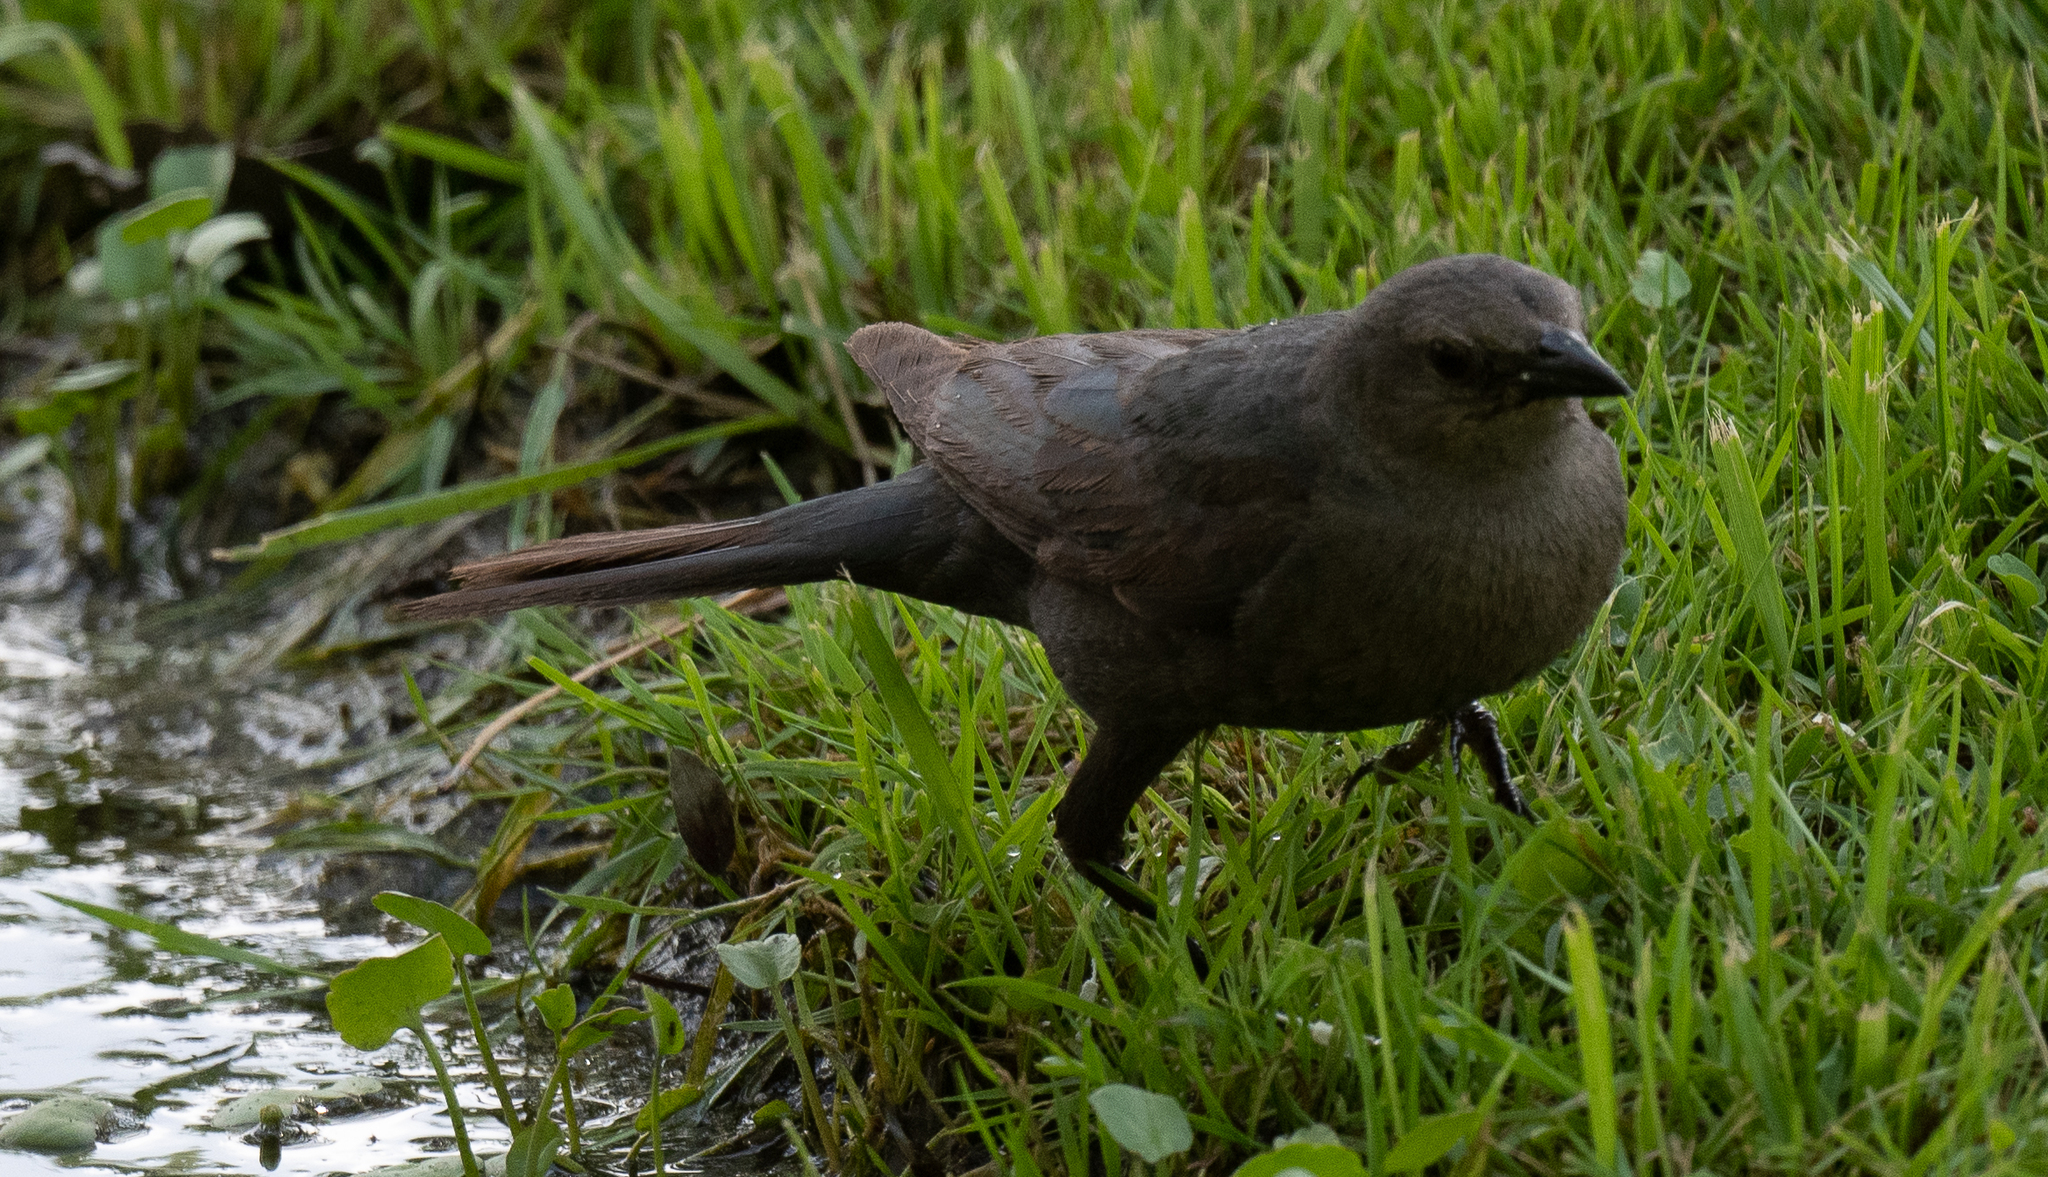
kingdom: Animalia
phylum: Chordata
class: Aves
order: Passeriformes
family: Icteridae
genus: Euphagus
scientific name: Euphagus cyanocephalus
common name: Brewer's blackbird
